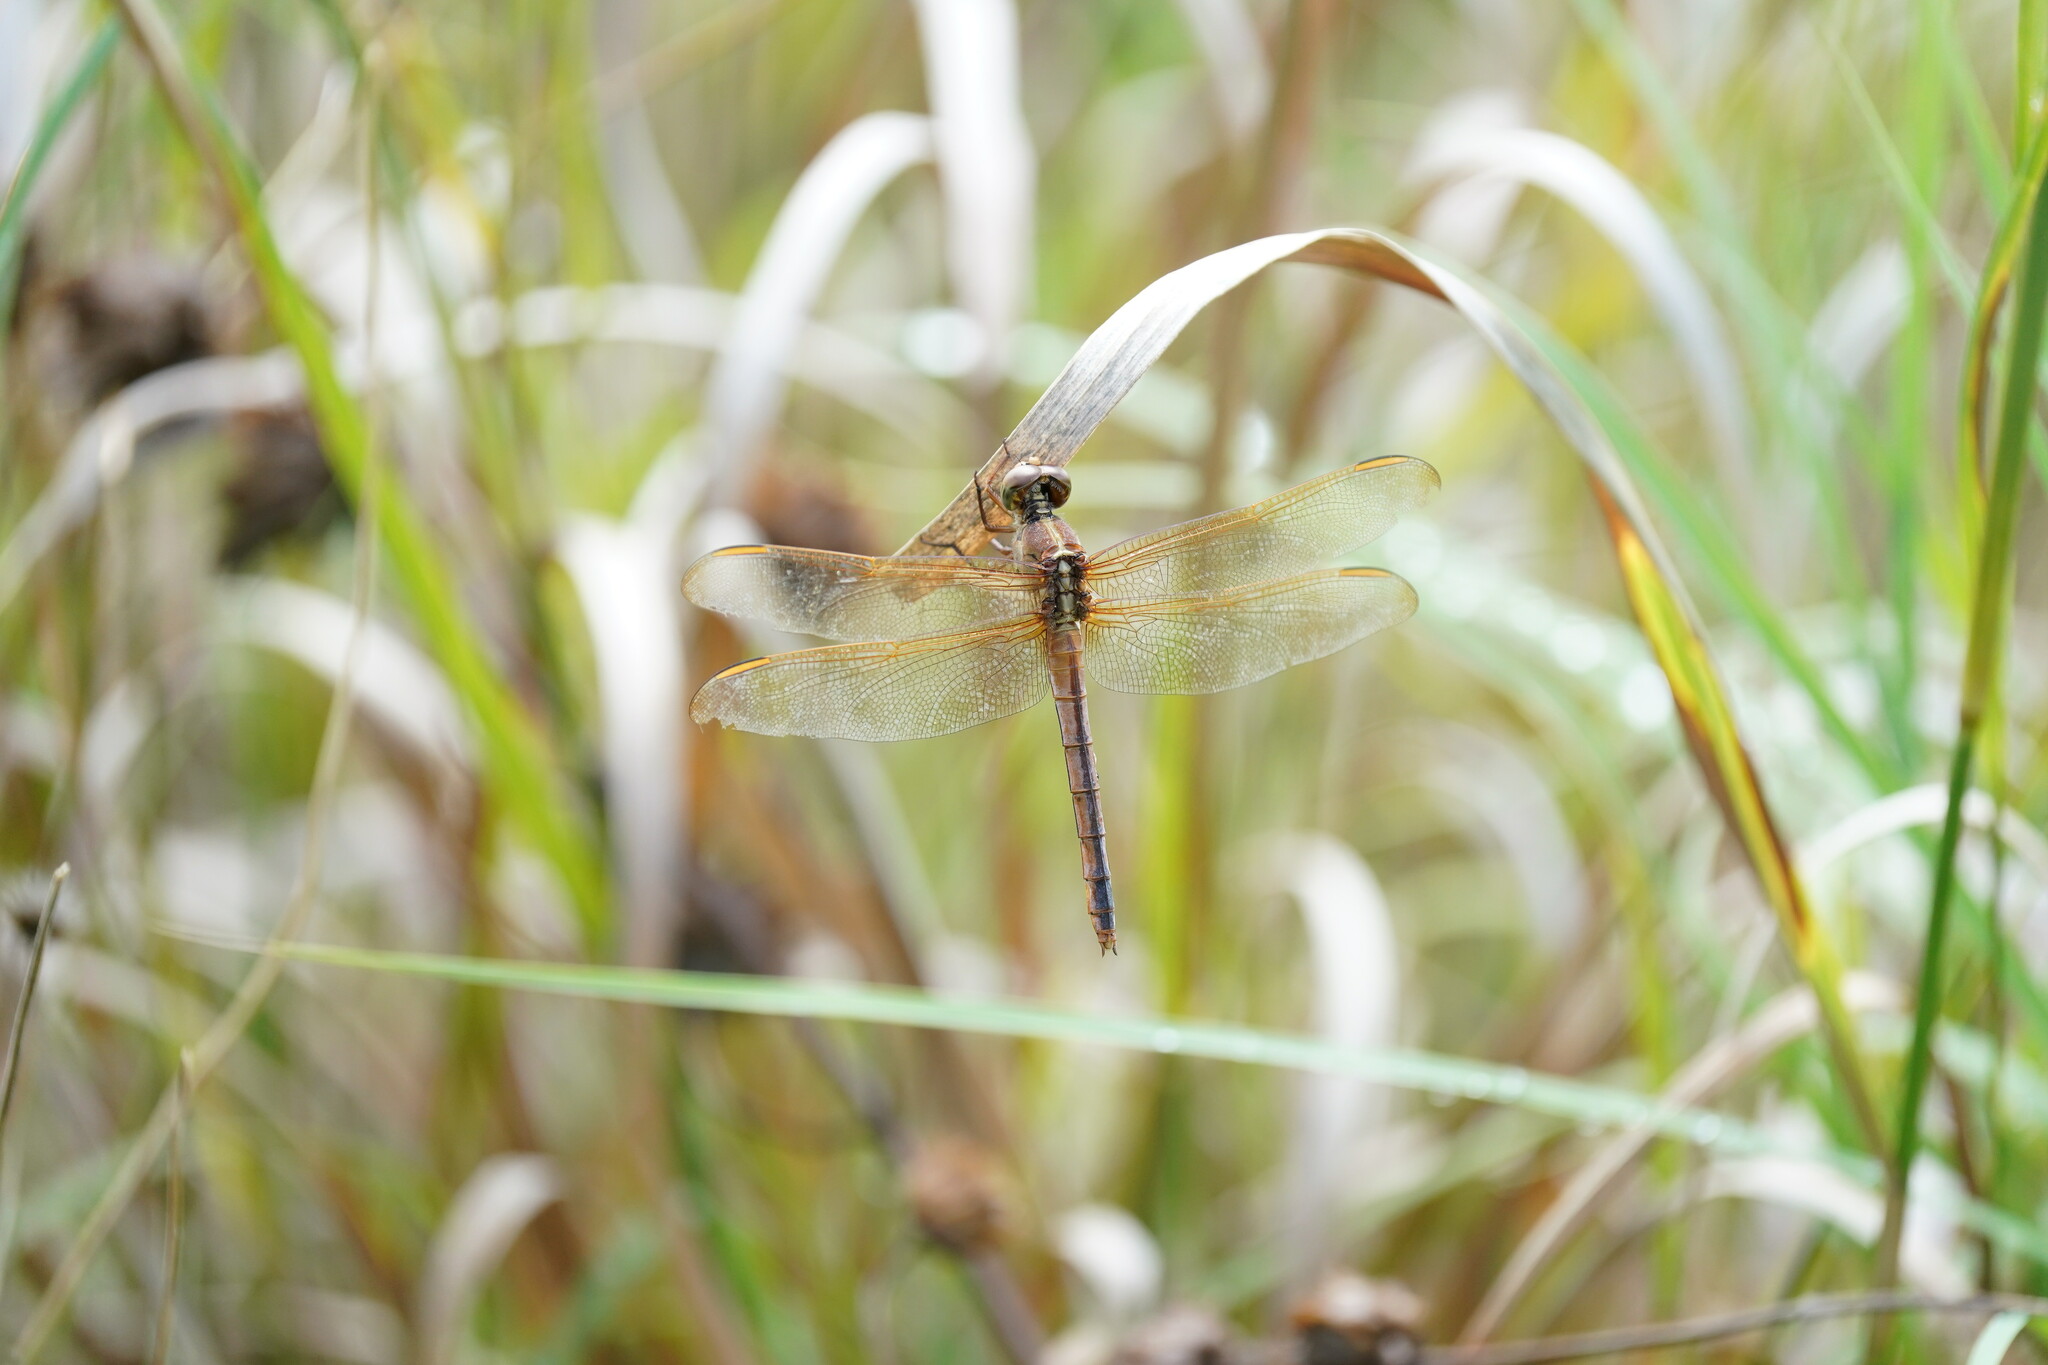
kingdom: Animalia
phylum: Arthropoda
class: Insecta
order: Odonata
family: Libellulidae
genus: Libellula
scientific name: Libellula needhami
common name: Needham's skimmer
